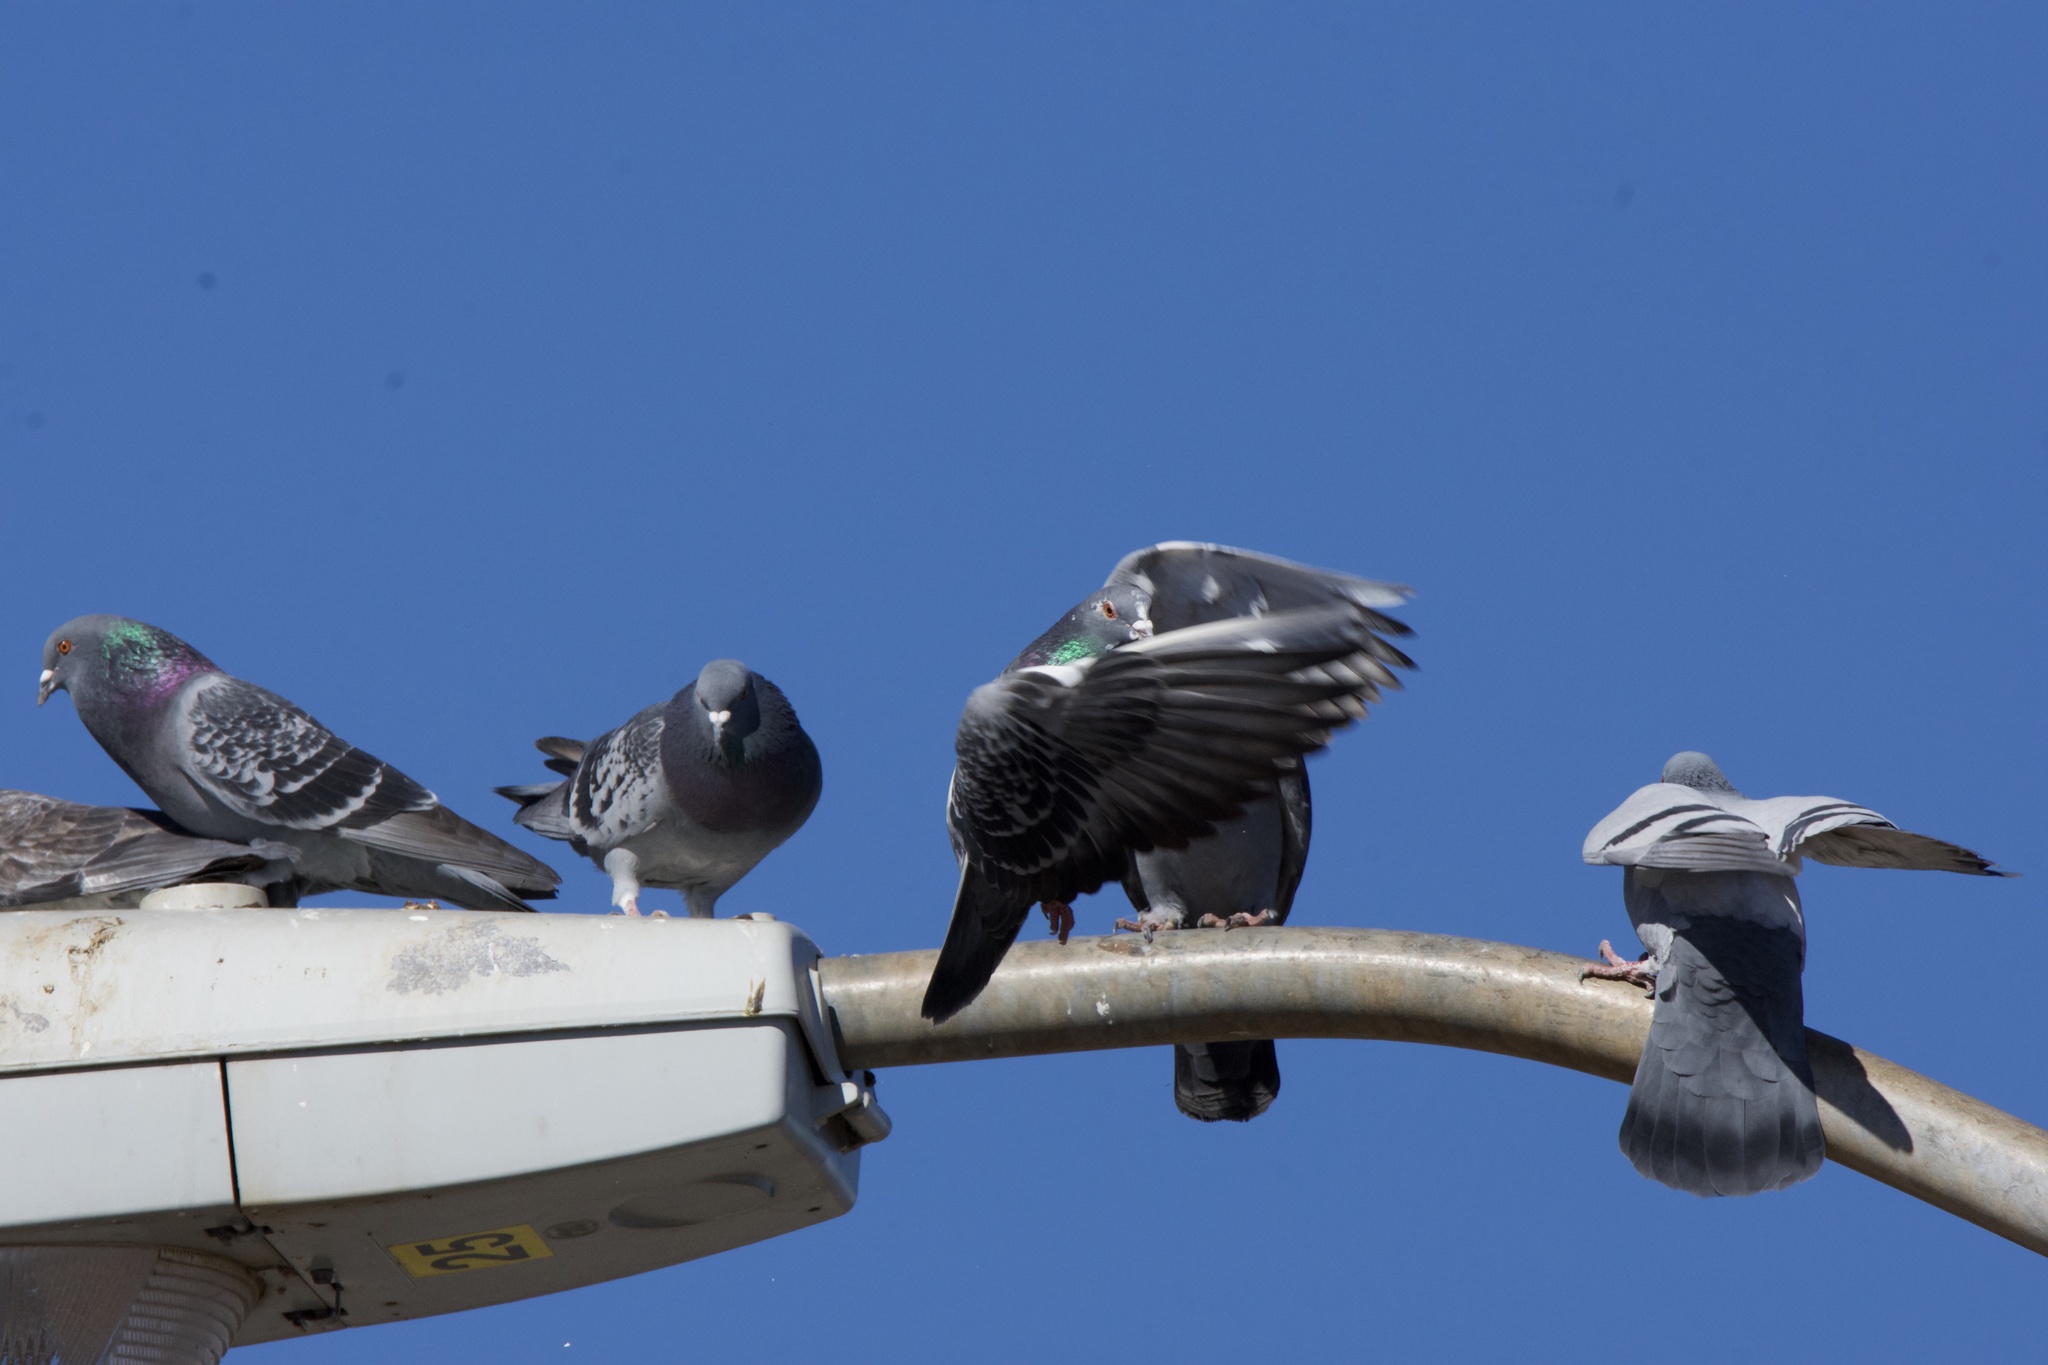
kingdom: Animalia
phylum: Chordata
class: Aves
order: Columbiformes
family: Columbidae
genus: Columba
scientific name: Columba livia
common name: Rock pigeon
